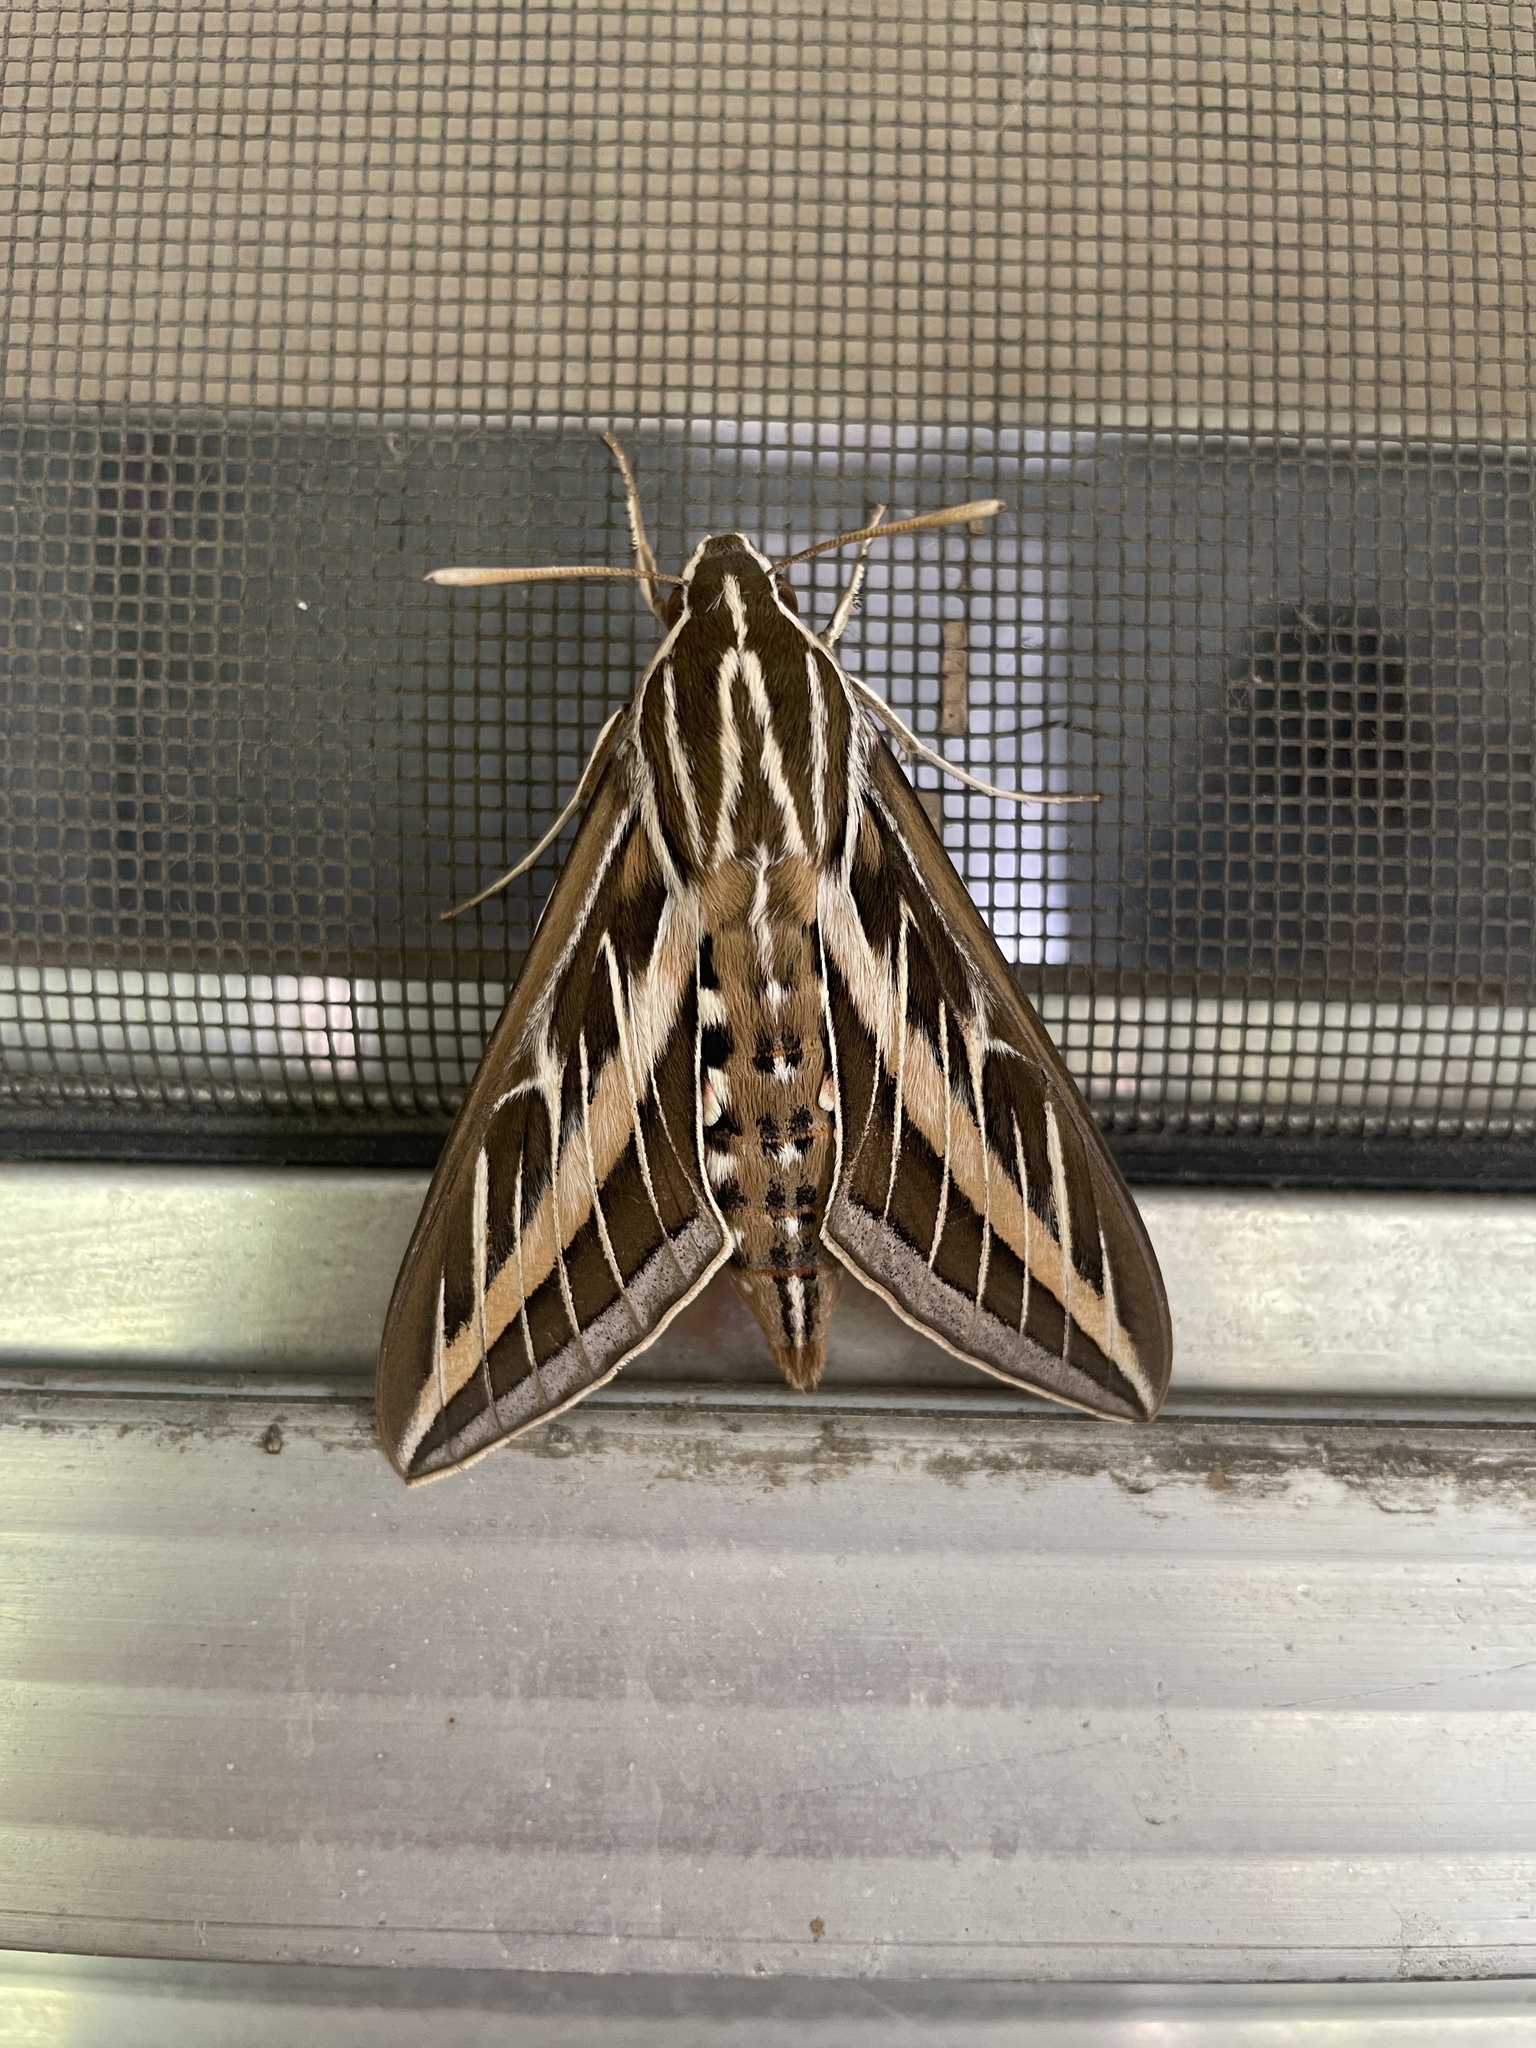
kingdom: Animalia
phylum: Arthropoda
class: Insecta
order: Lepidoptera
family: Sphingidae
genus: Hyles
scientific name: Hyles lineata
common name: White-lined sphinx
